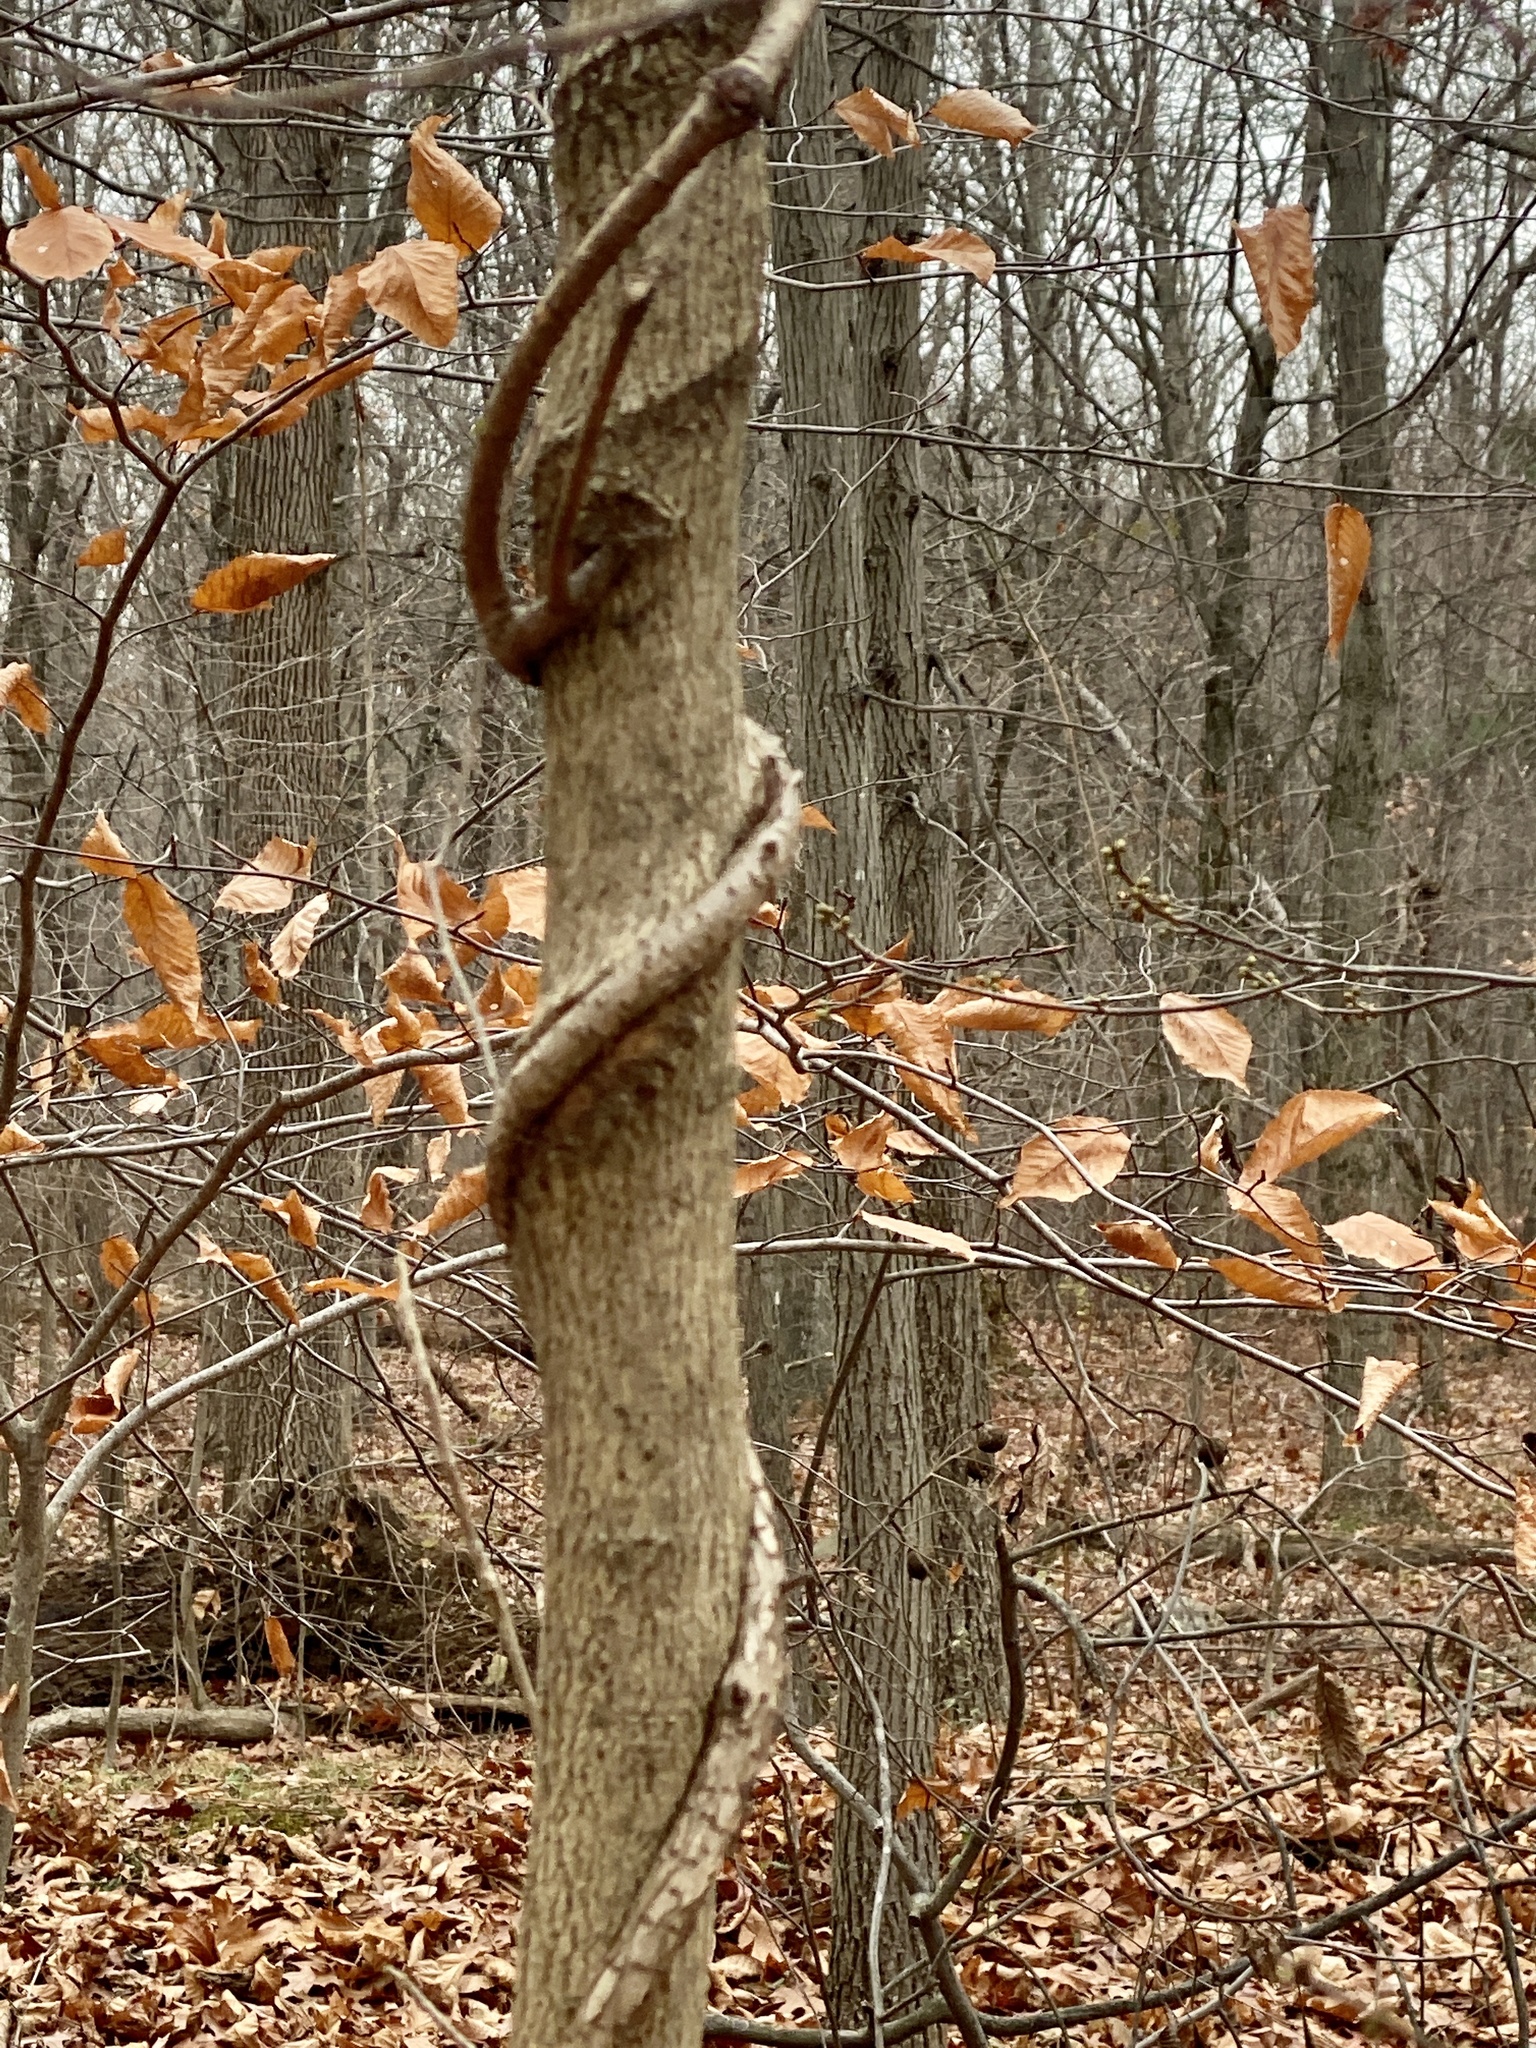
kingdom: Plantae
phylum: Tracheophyta
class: Magnoliopsida
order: Celastrales
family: Celastraceae
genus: Celastrus
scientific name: Celastrus orbiculatus
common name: Oriental bittersweet
